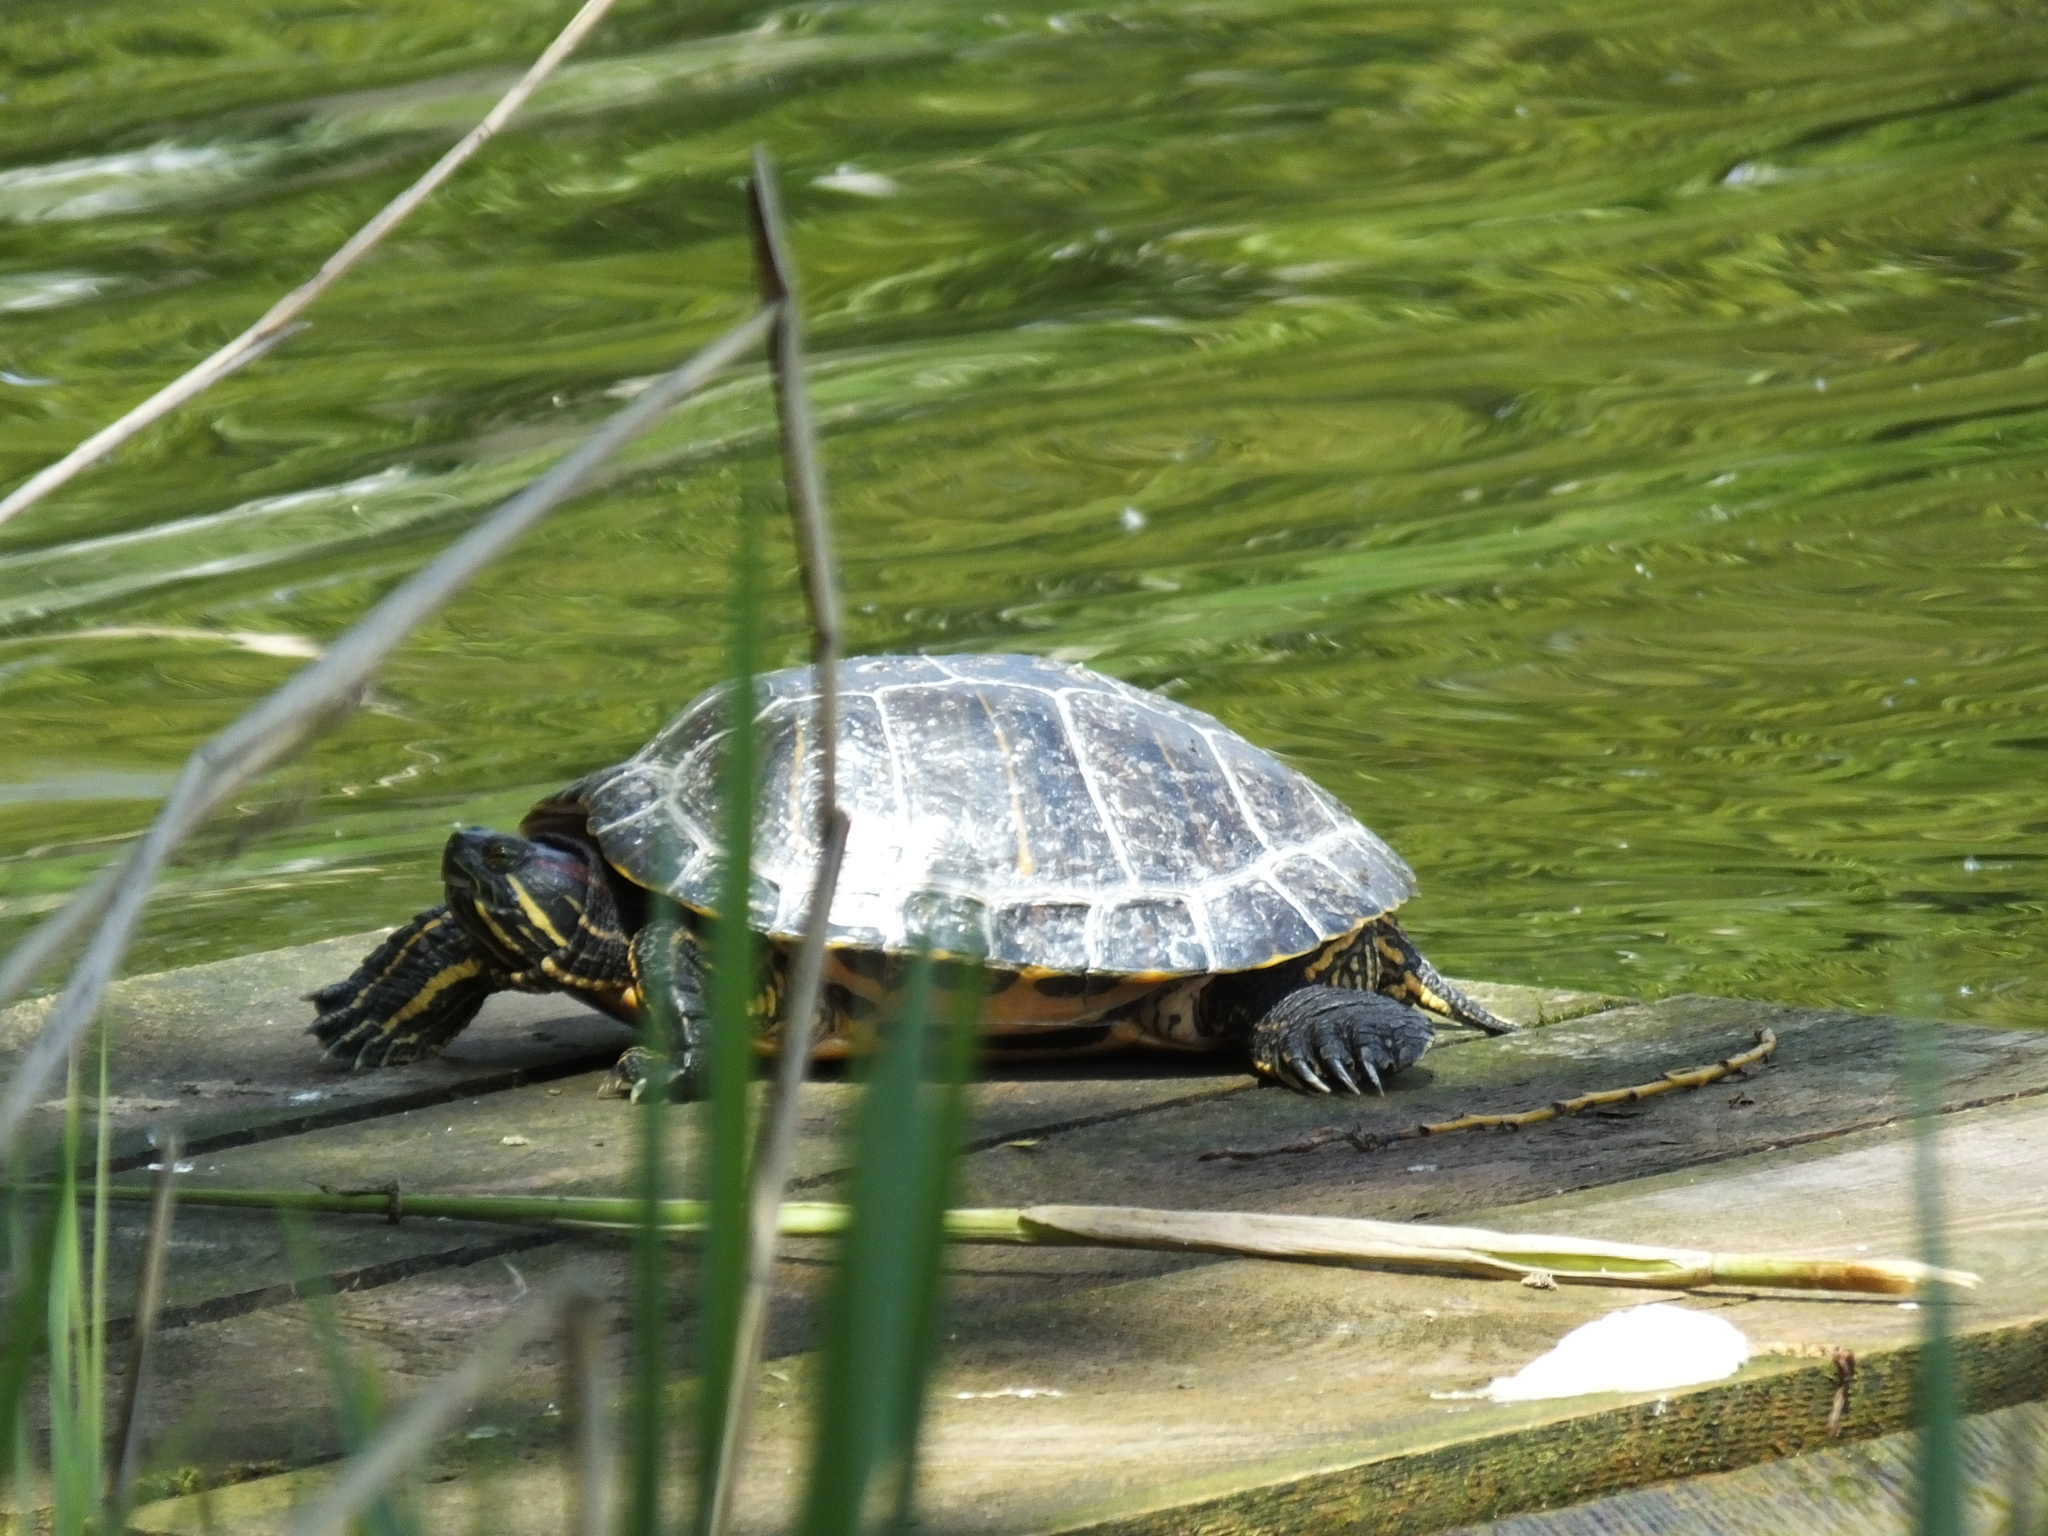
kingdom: Animalia
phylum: Chordata
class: Testudines
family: Emydidae
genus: Trachemys
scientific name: Trachemys scripta
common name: Slider
